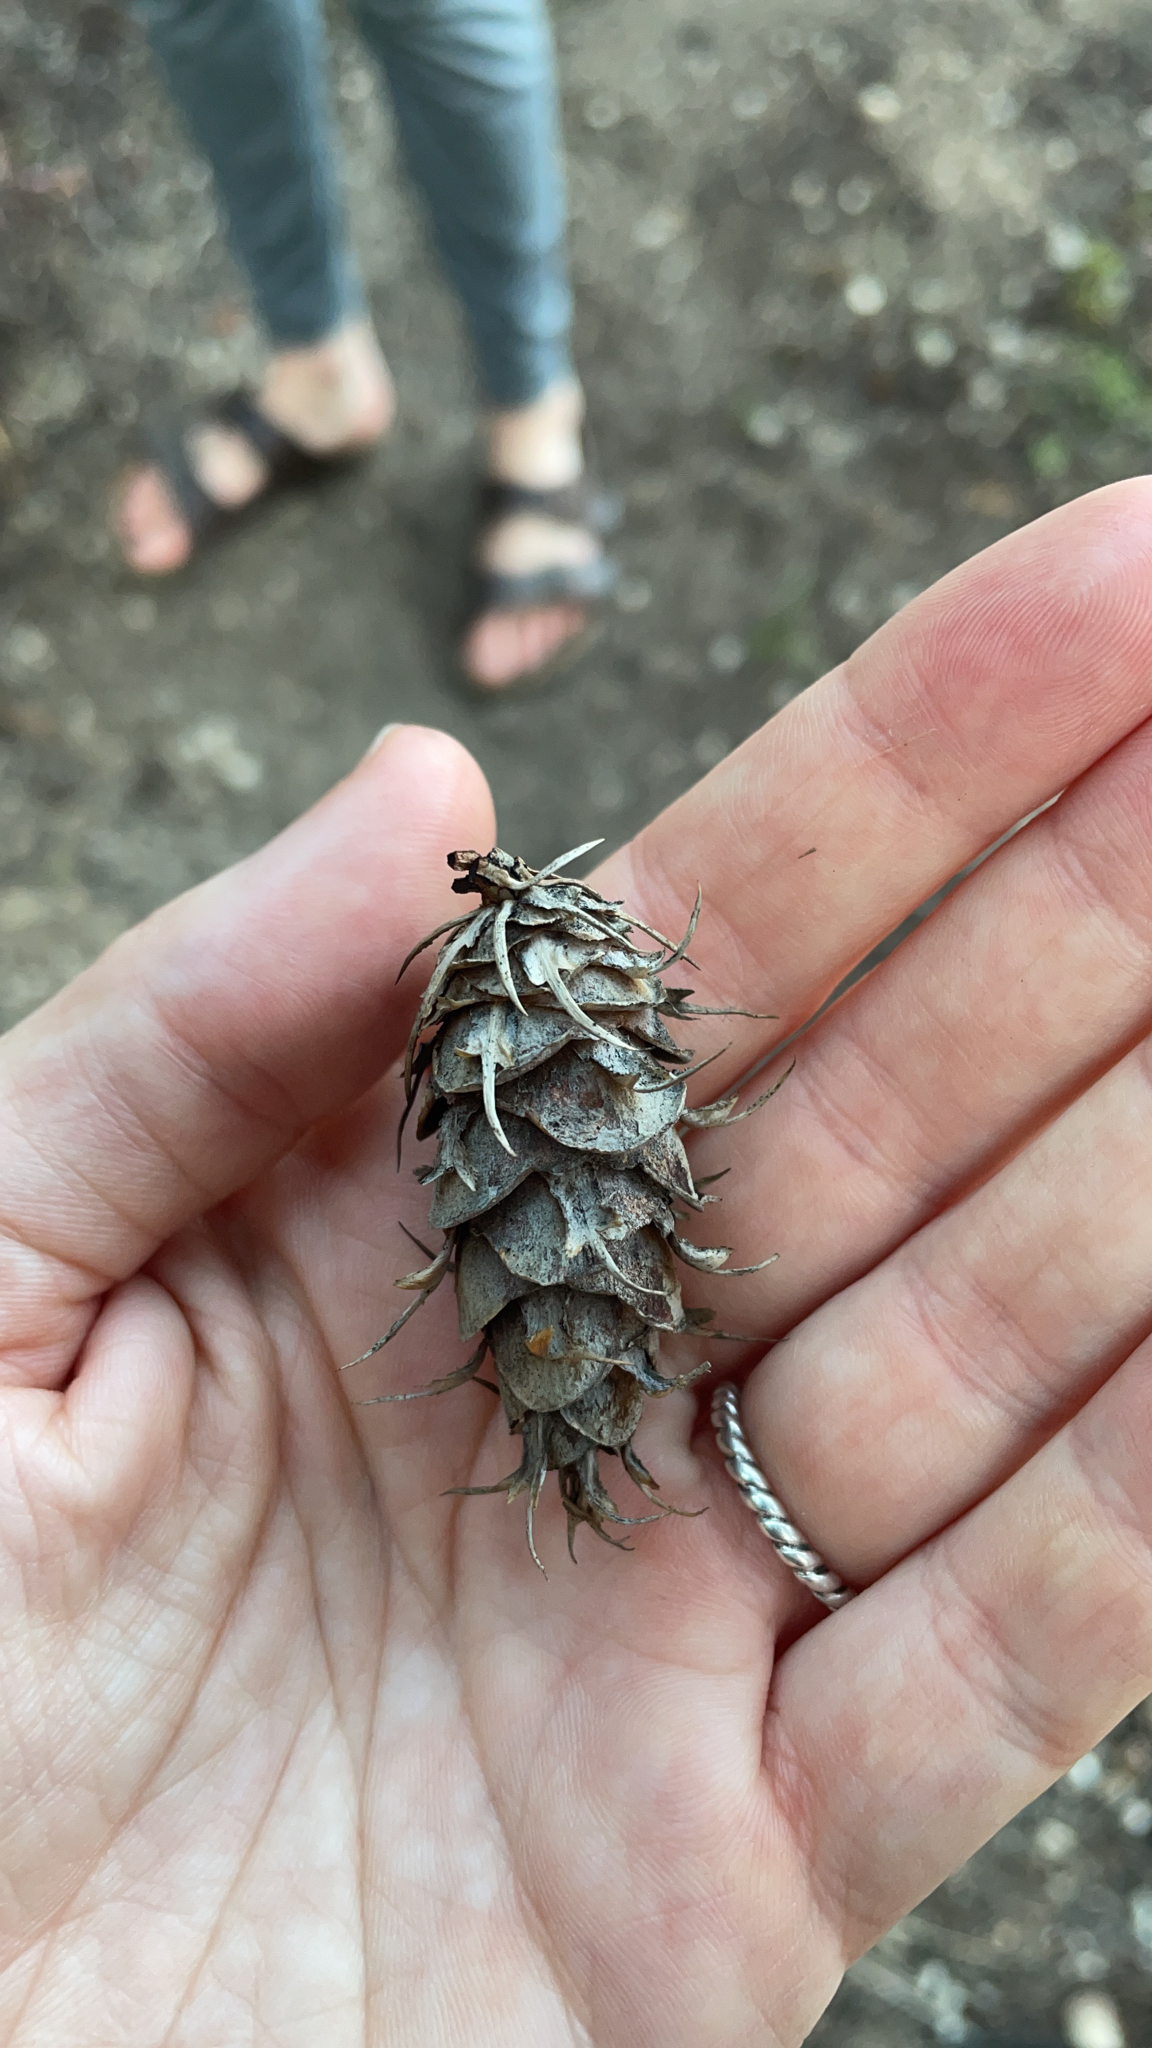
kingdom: Plantae
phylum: Tracheophyta
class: Pinopsida
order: Pinales
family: Pinaceae
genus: Pseudotsuga
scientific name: Pseudotsuga menziesii
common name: Douglas fir
